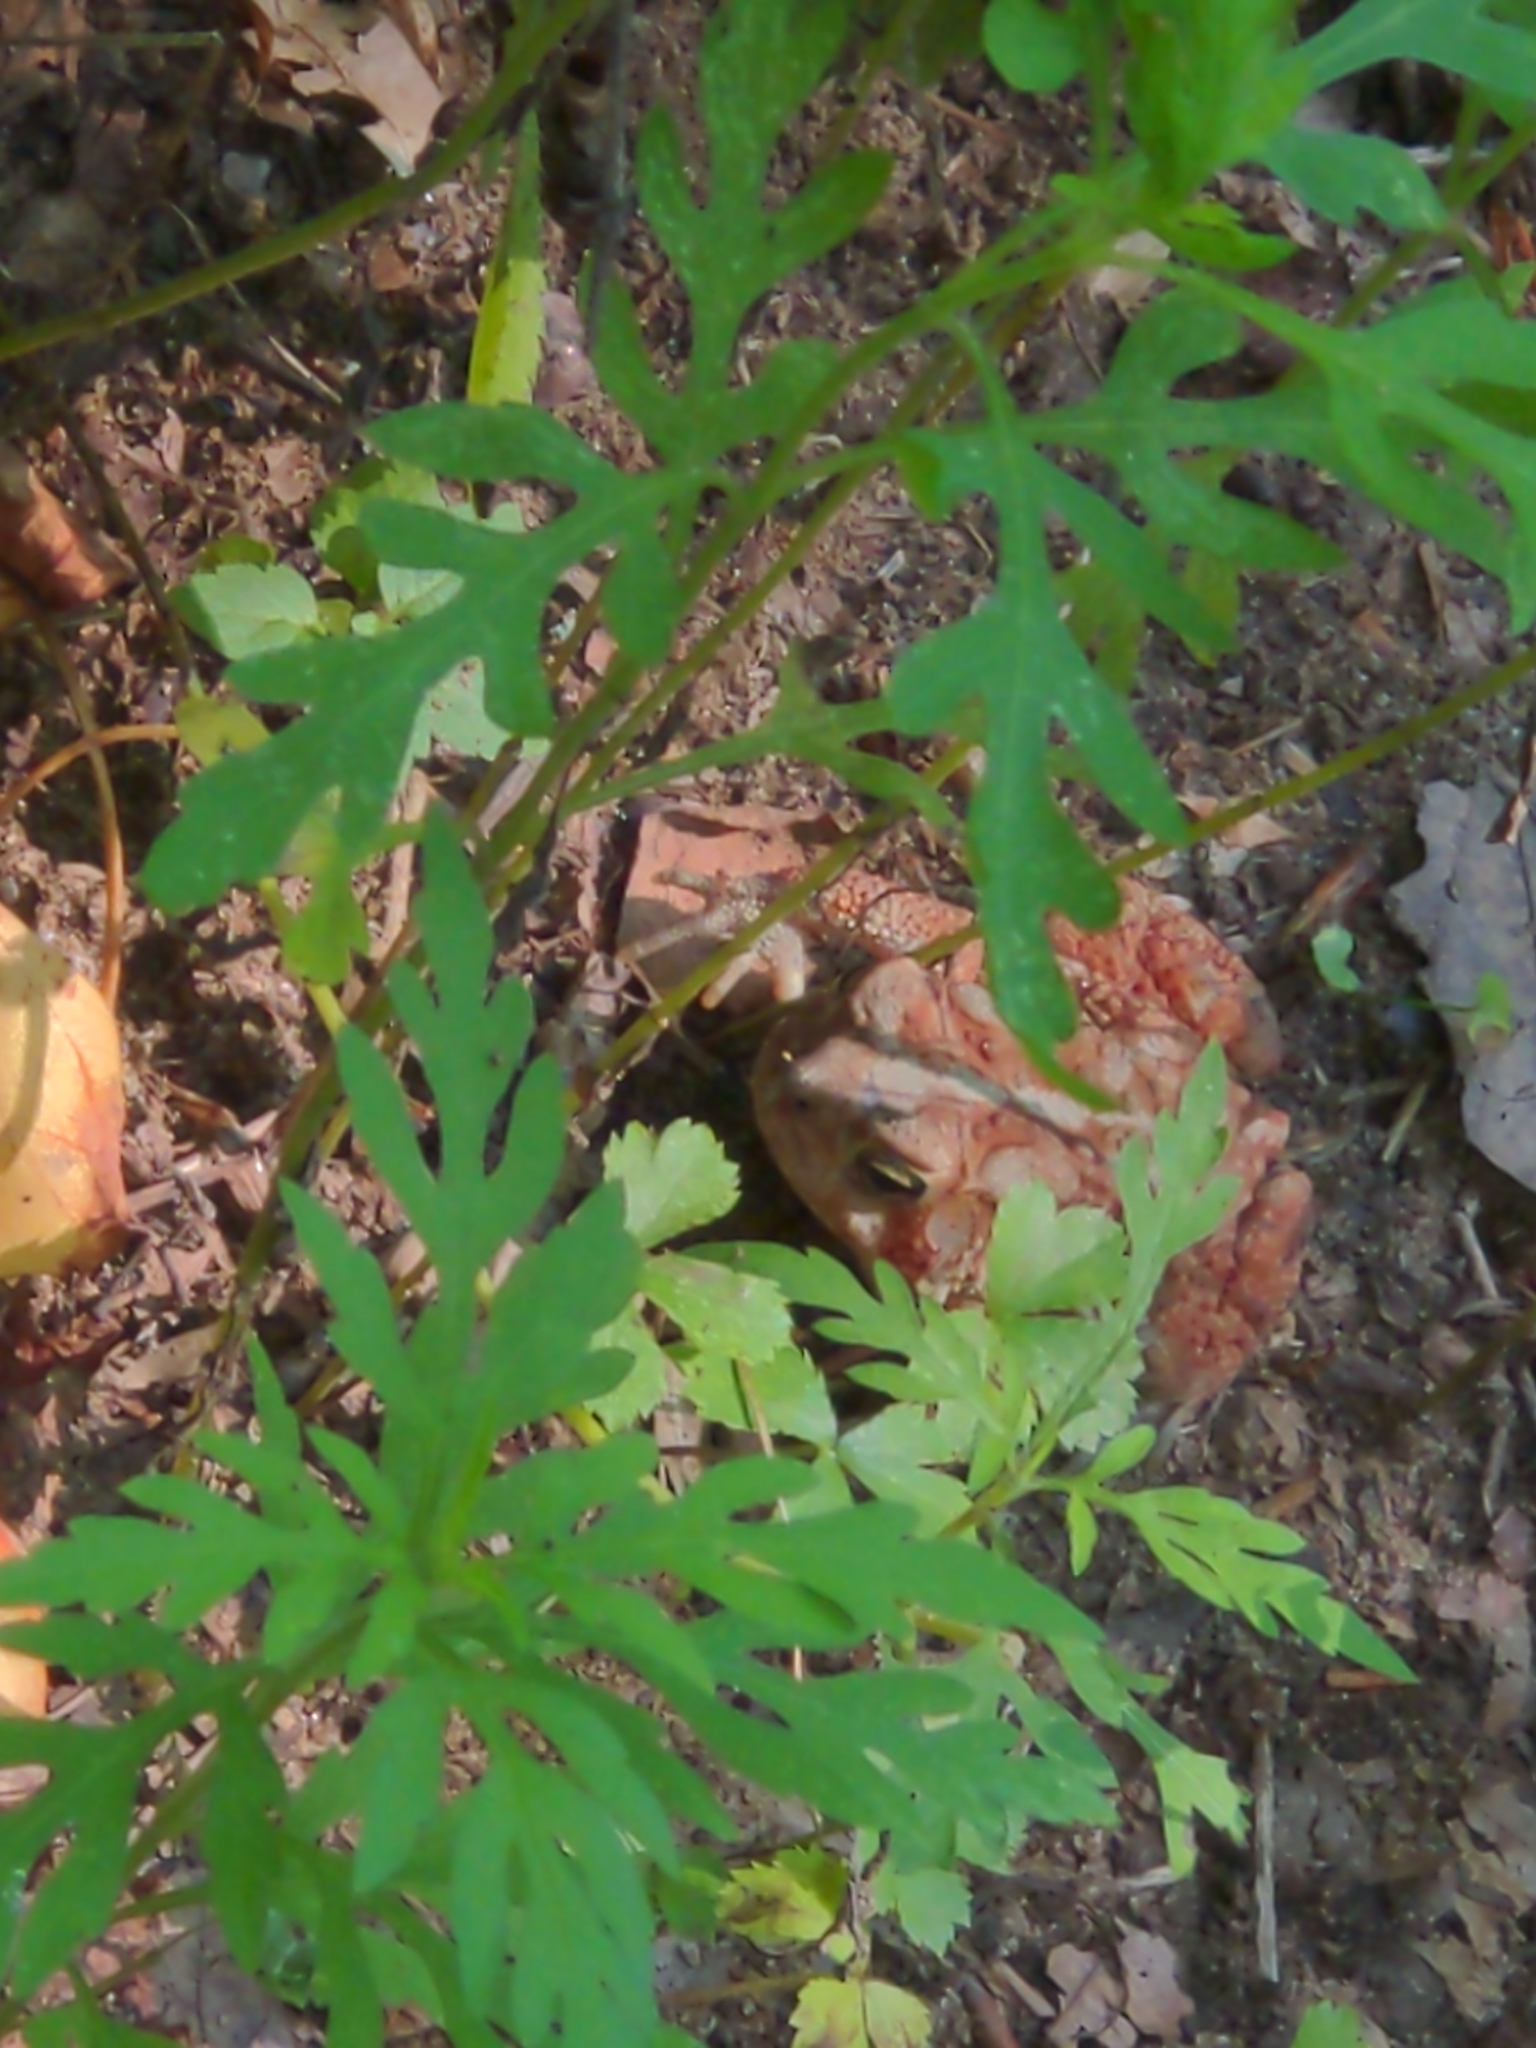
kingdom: Animalia
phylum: Chordata
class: Amphibia
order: Anura
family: Bufonidae
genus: Anaxyrus
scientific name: Anaxyrus americanus
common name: American toad
